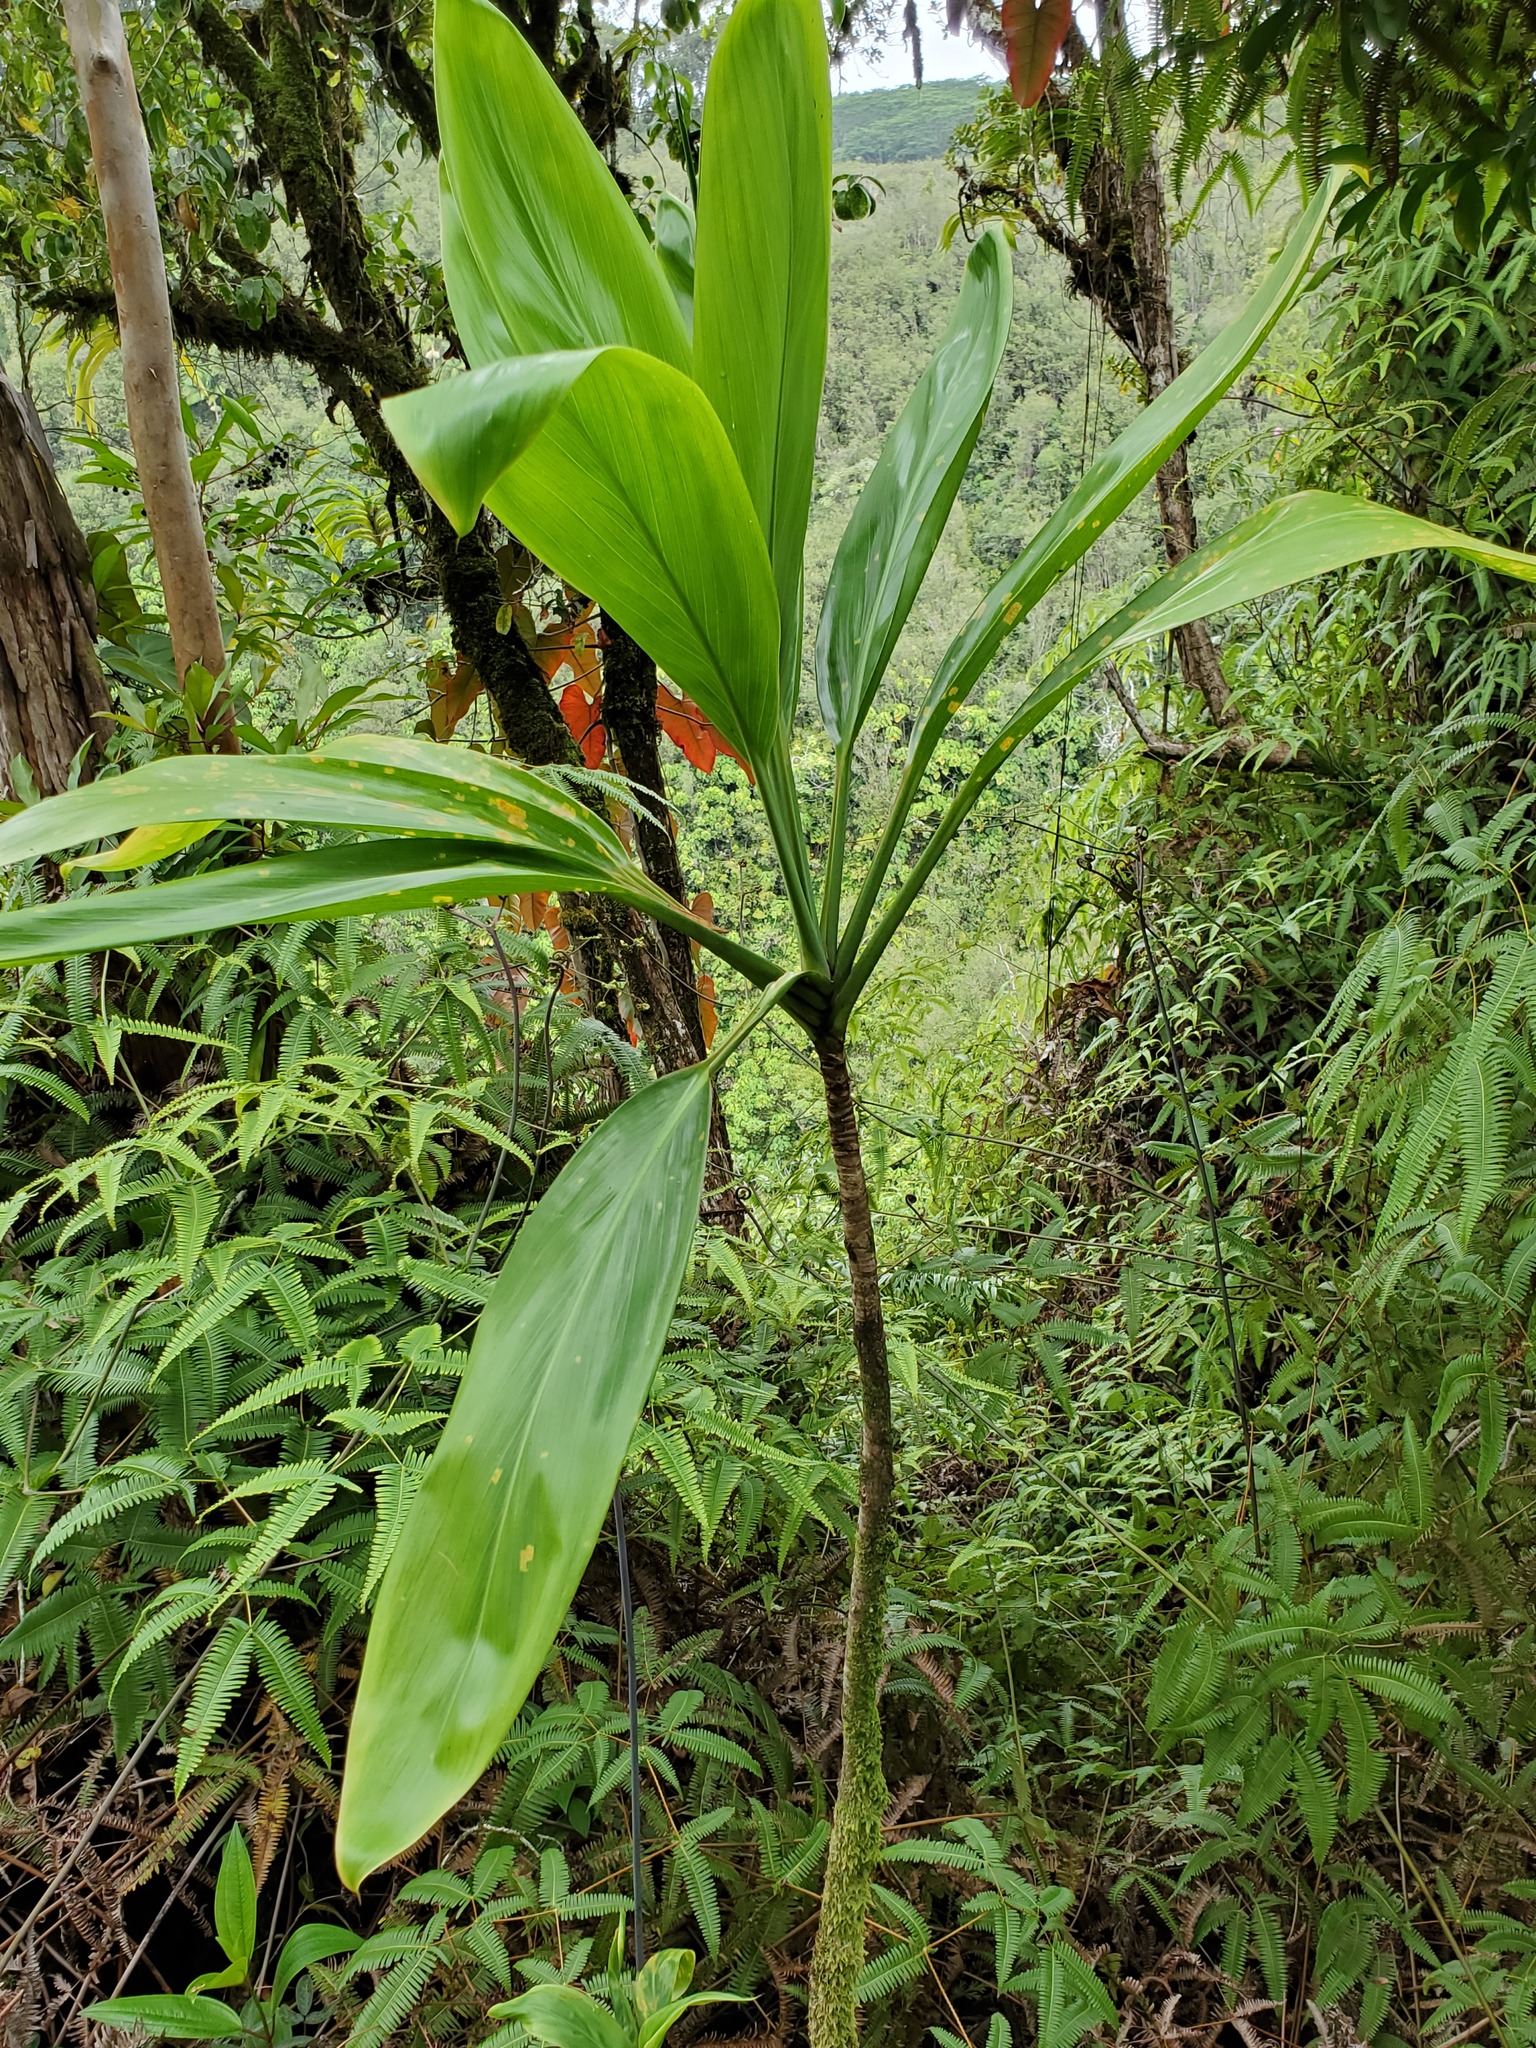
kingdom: Plantae
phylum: Tracheophyta
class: Liliopsida
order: Asparagales
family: Asparagaceae
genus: Cordyline
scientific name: Cordyline fruticosa
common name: Good-luck-plant
